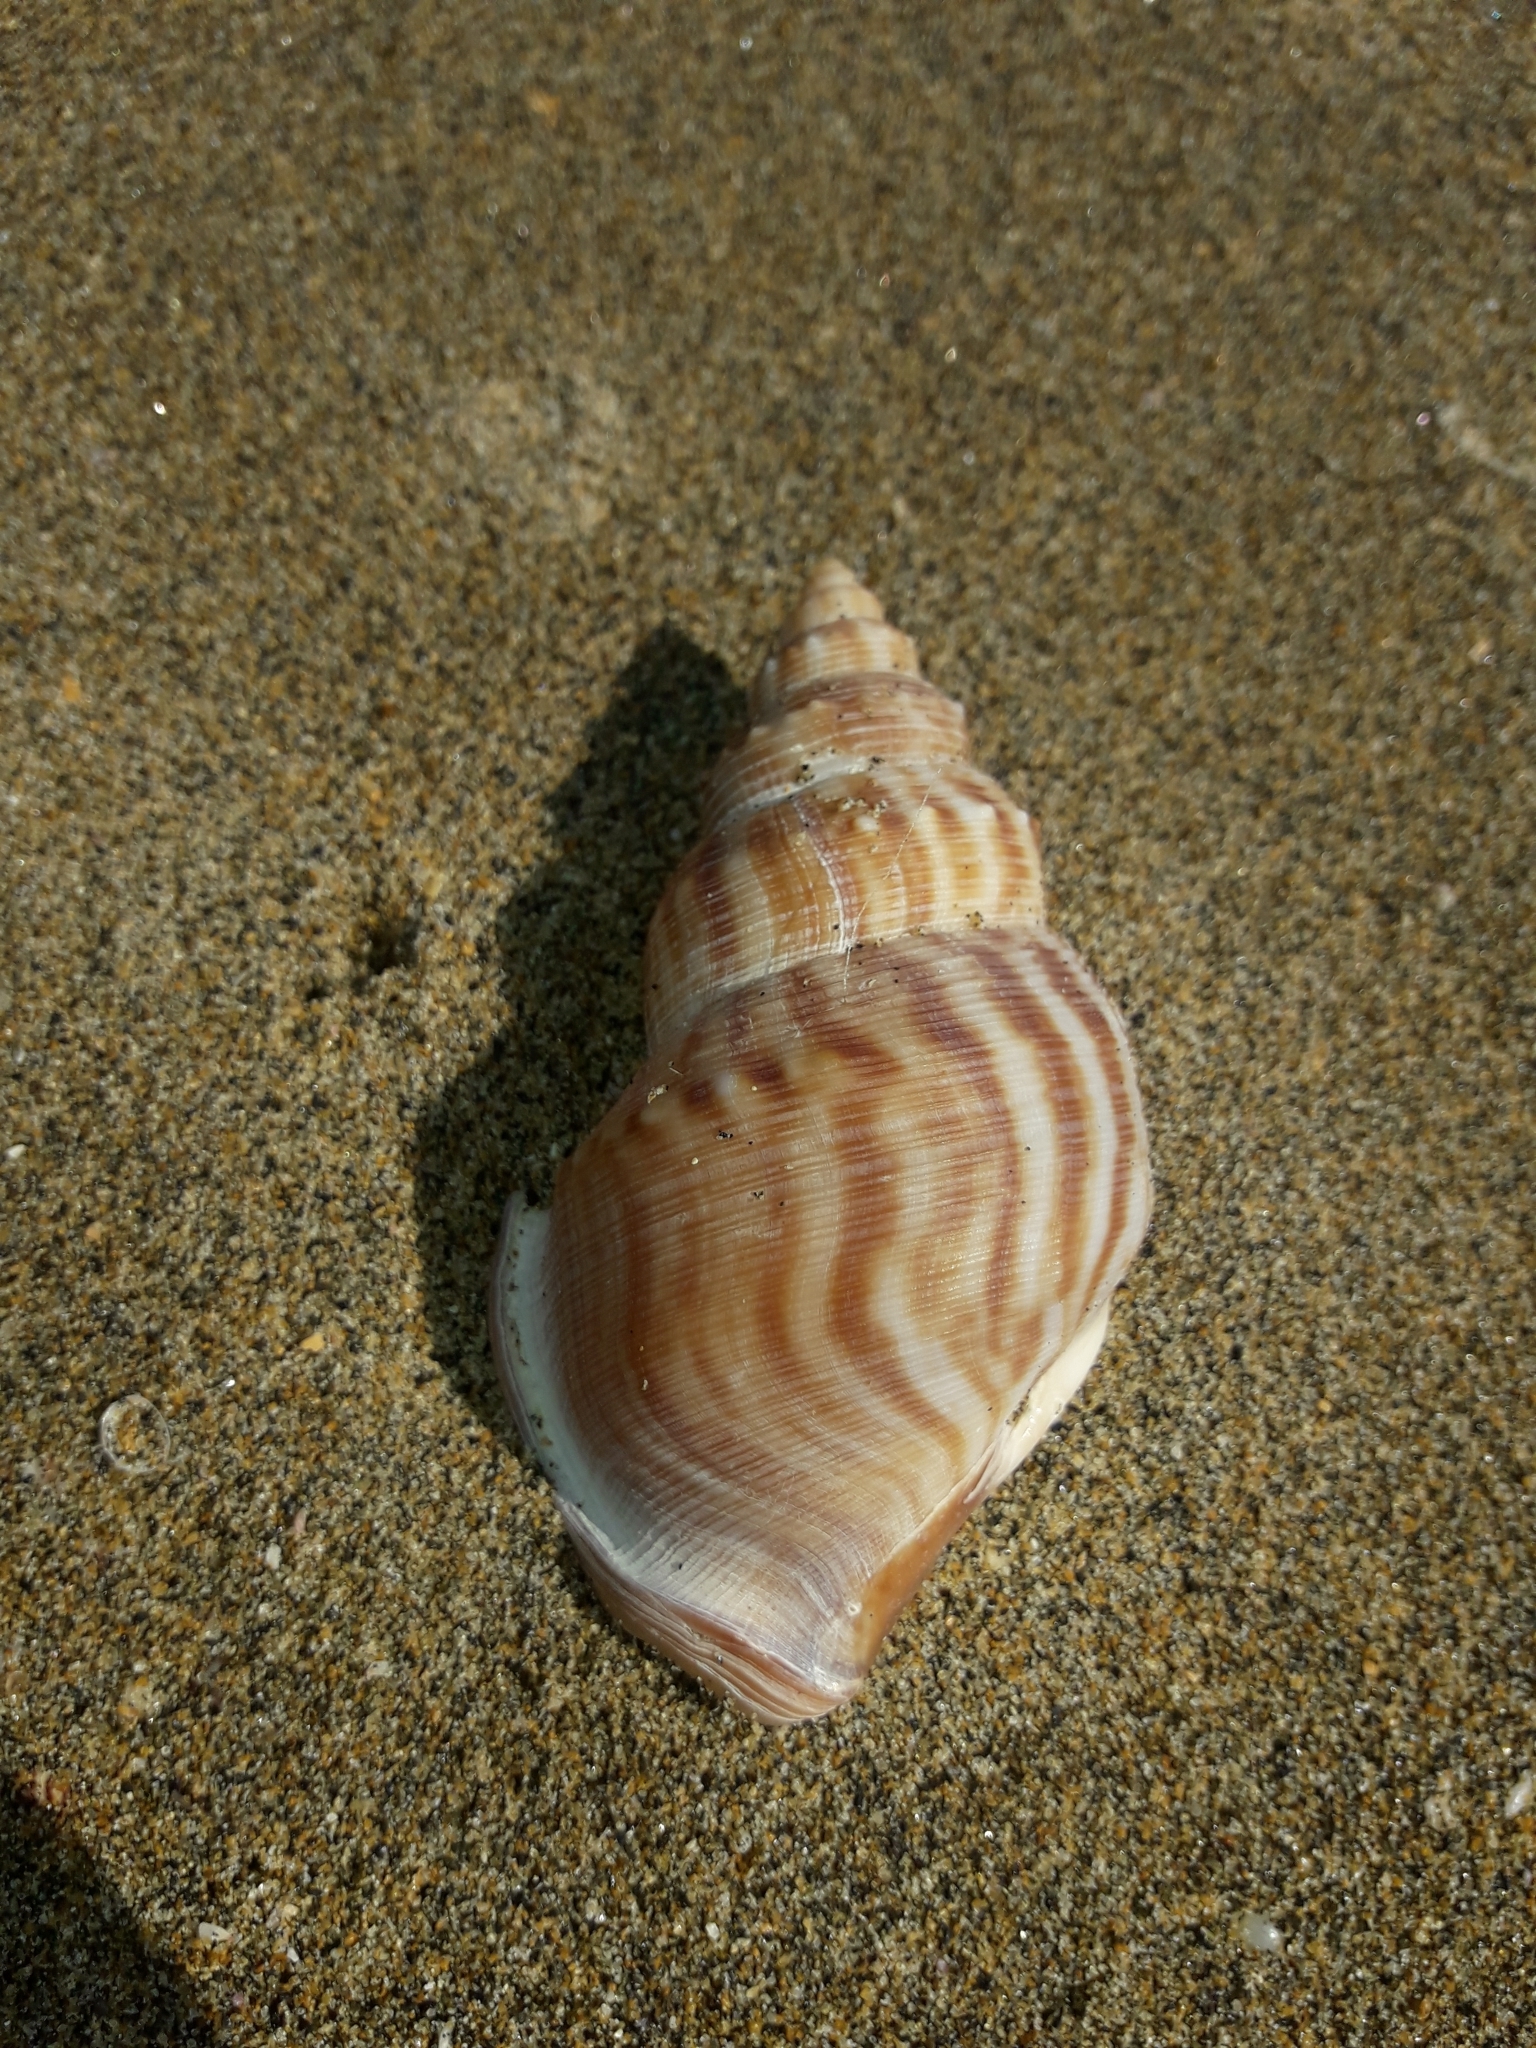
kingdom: Animalia
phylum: Mollusca
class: Gastropoda
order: Littorinimorpha
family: Struthiolariidae
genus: Struthiolaria
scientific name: Struthiolaria papulosa
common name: Large ostrich foot
